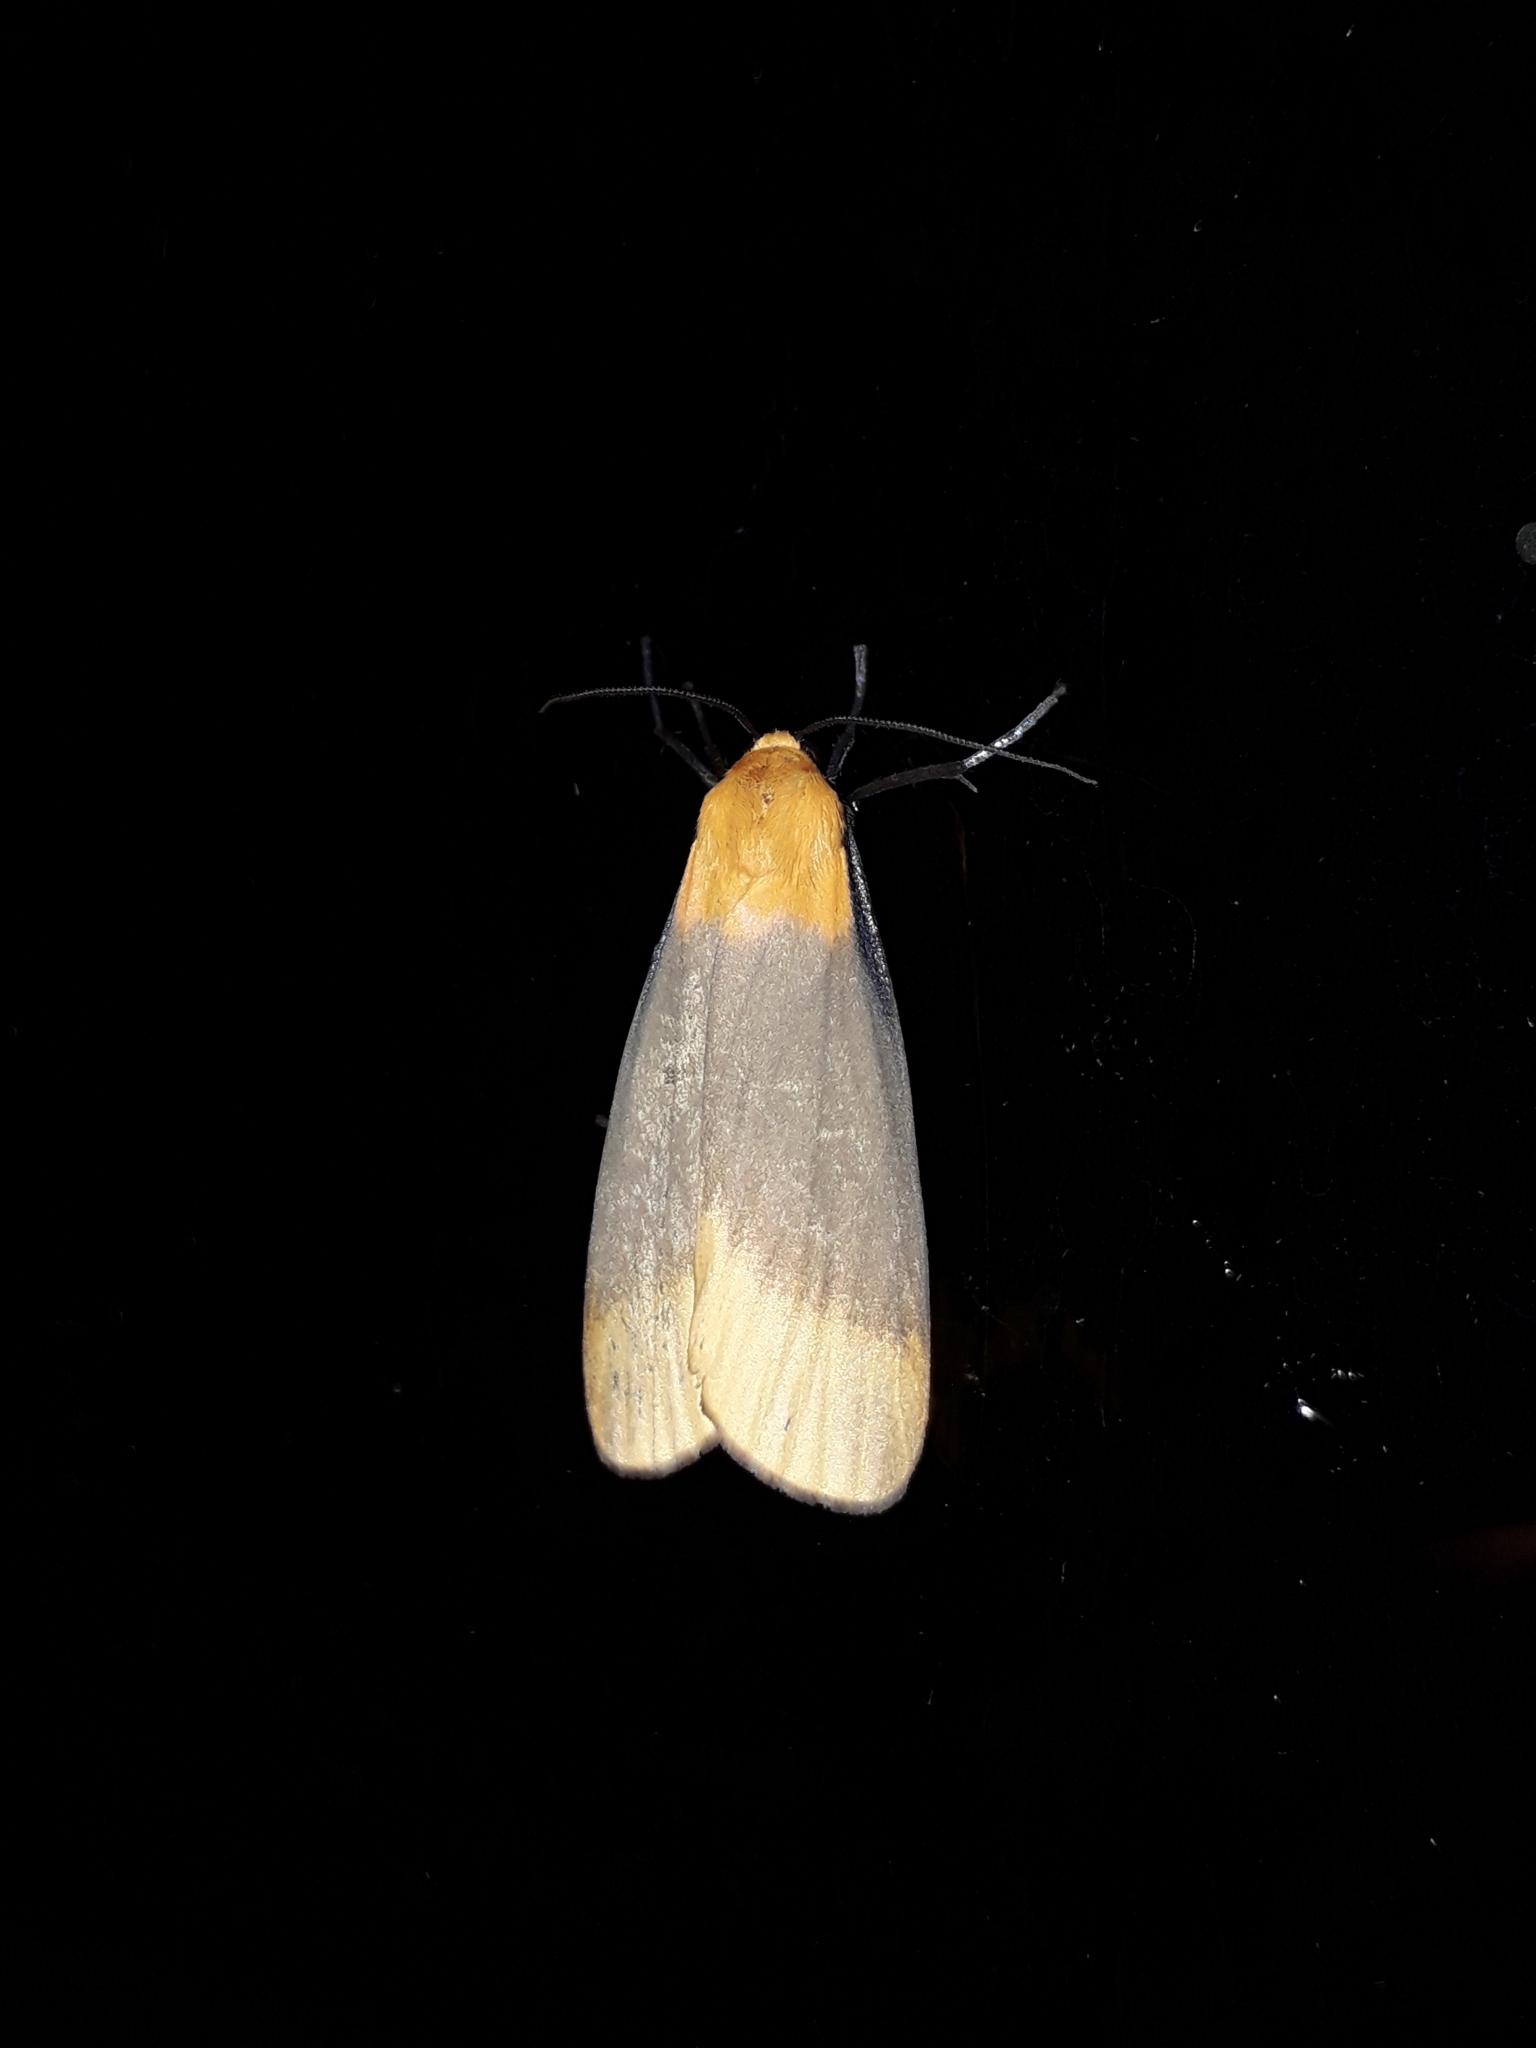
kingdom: Animalia
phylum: Arthropoda
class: Insecta
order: Lepidoptera
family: Erebidae
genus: Lithosia
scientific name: Lithosia quadra
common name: Four-spotted footman
